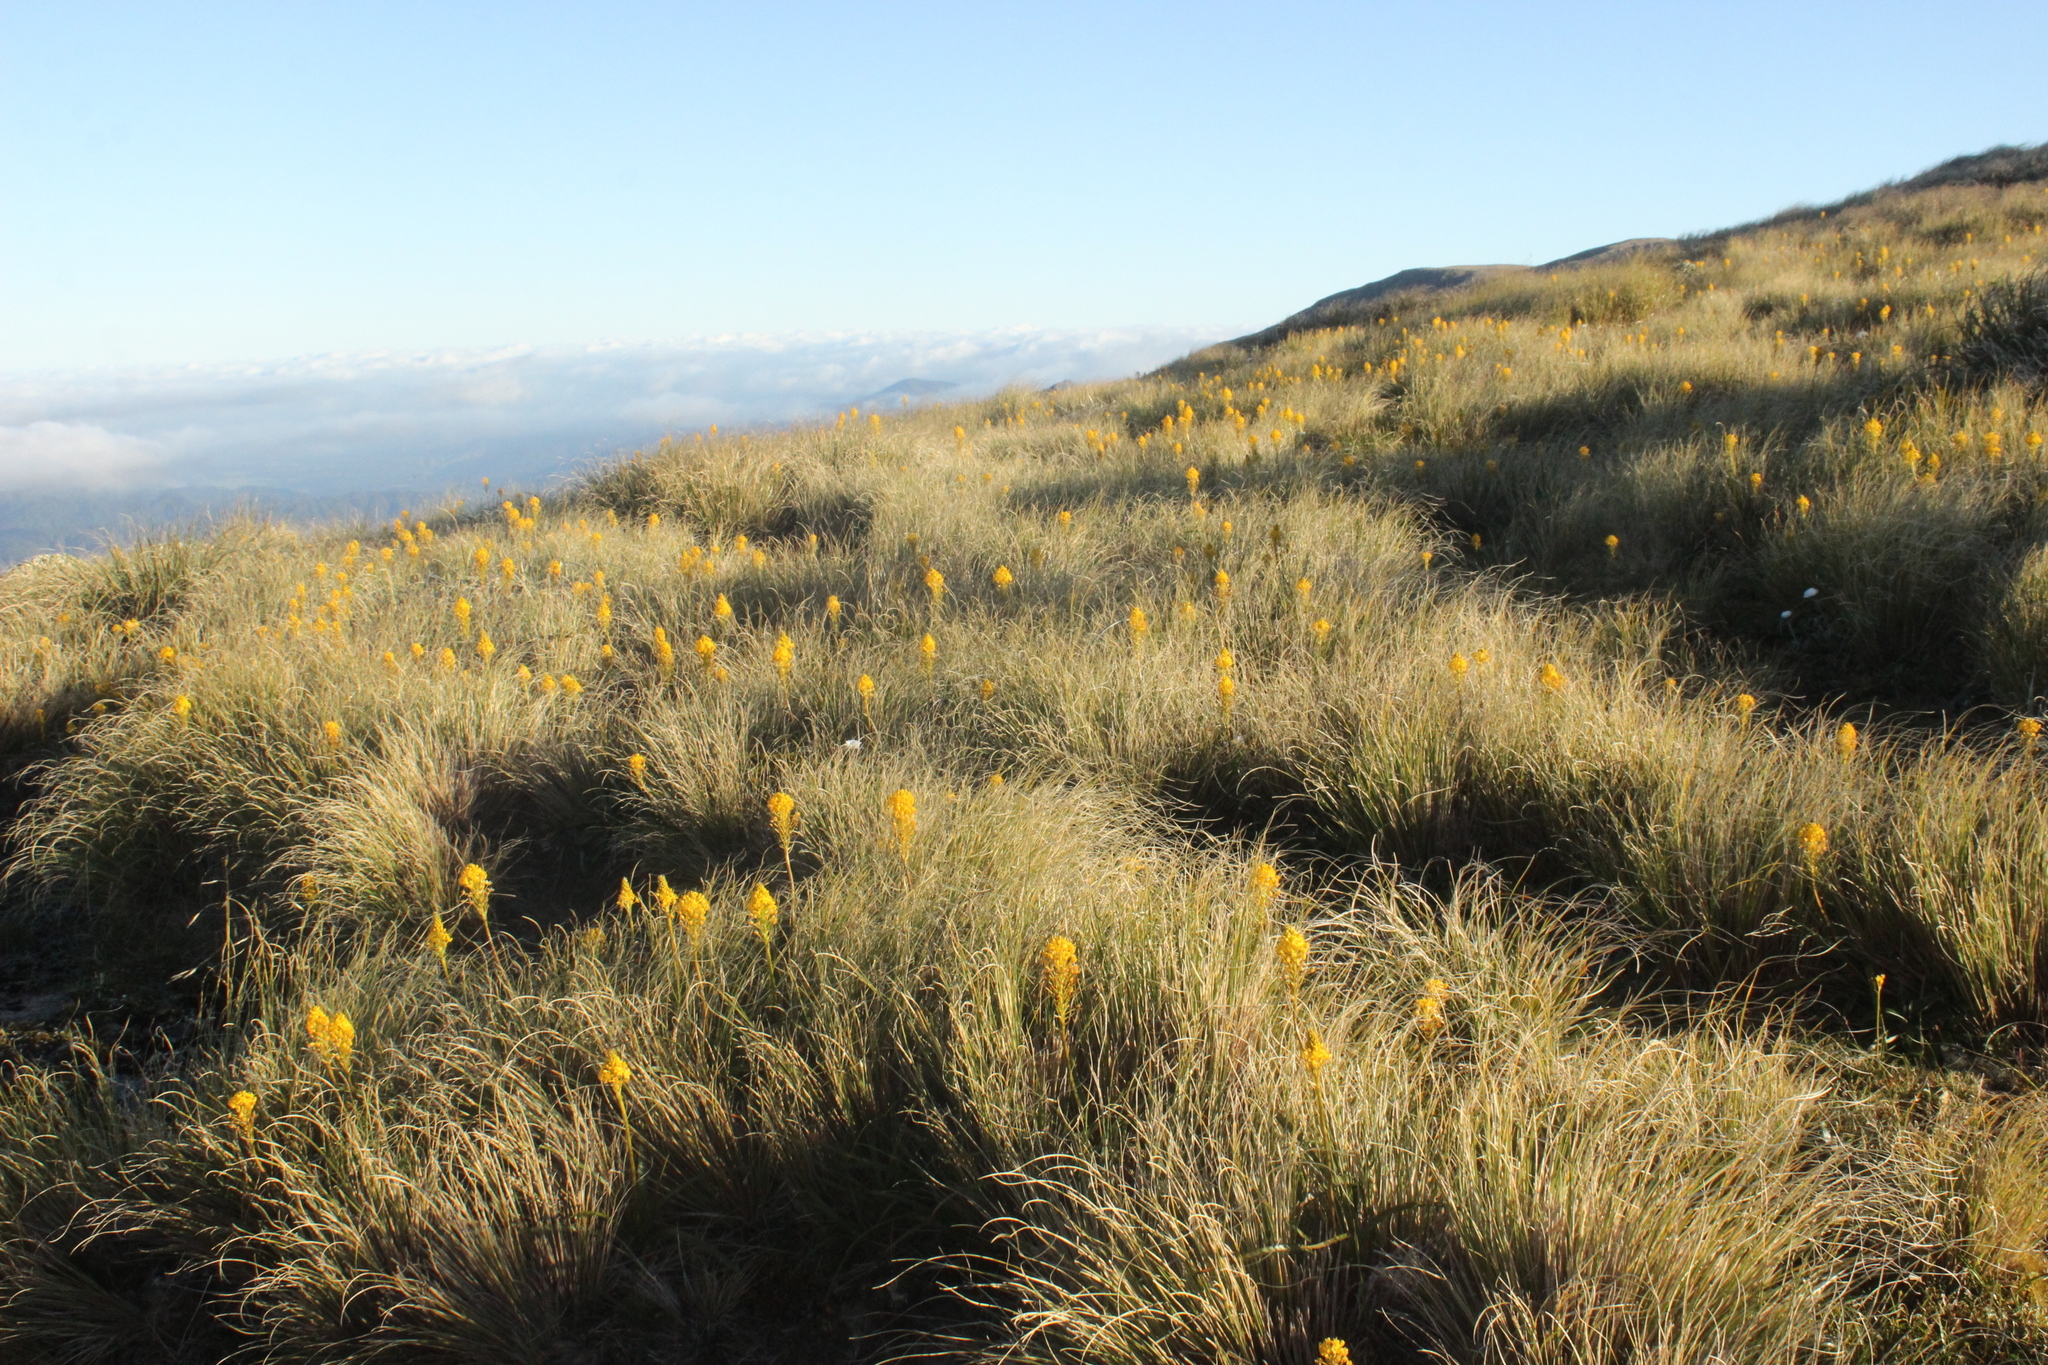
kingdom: Plantae
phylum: Tracheophyta
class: Liliopsida
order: Asparagales
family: Asphodelaceae
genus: Bulbinella
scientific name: Bulbinella hookeri
